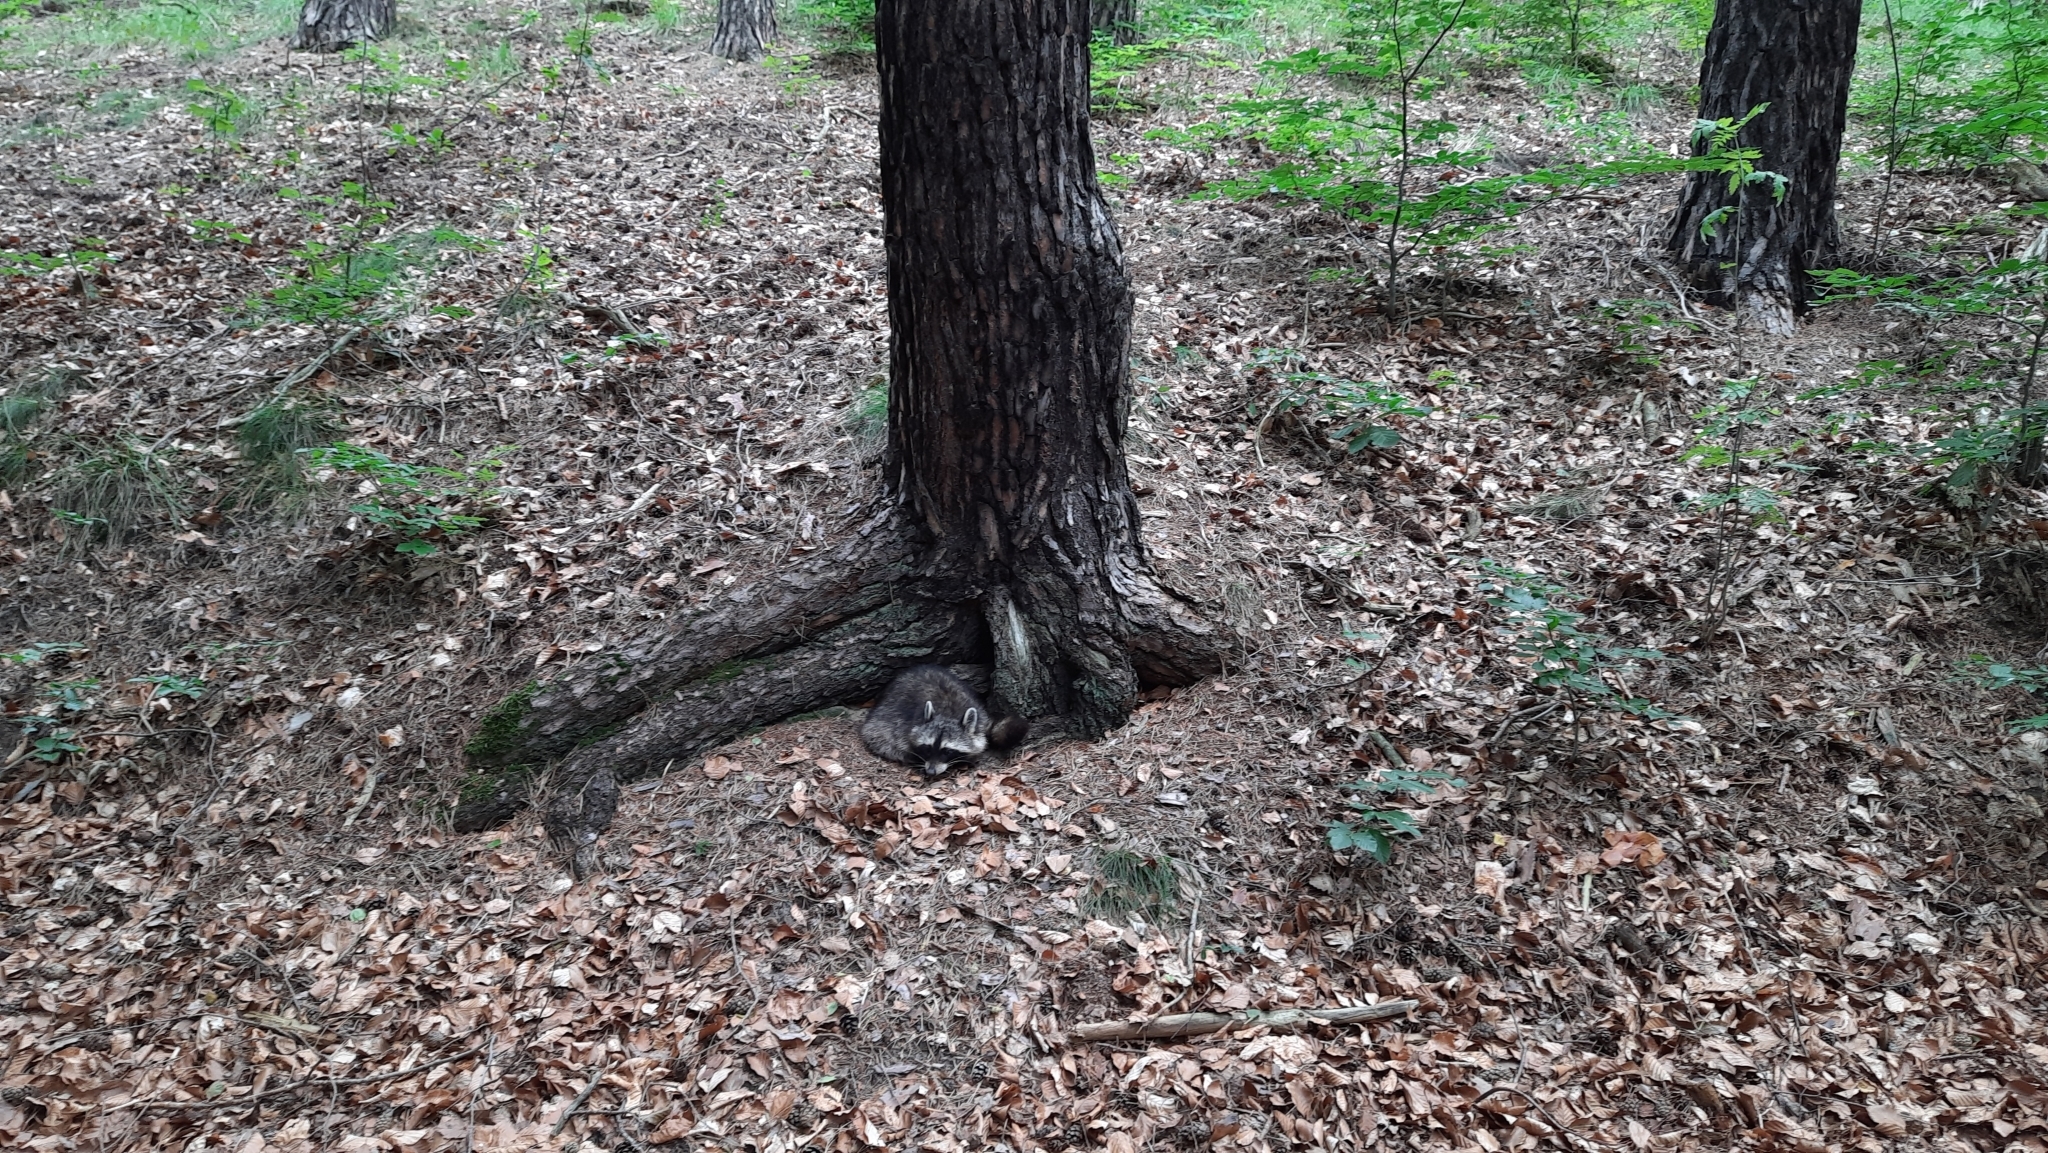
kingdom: Animalia
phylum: Chordata
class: Mammalia
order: Carnivora
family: Procyonidae
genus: Procyon
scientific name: Procyon lotor
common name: Raccoon
